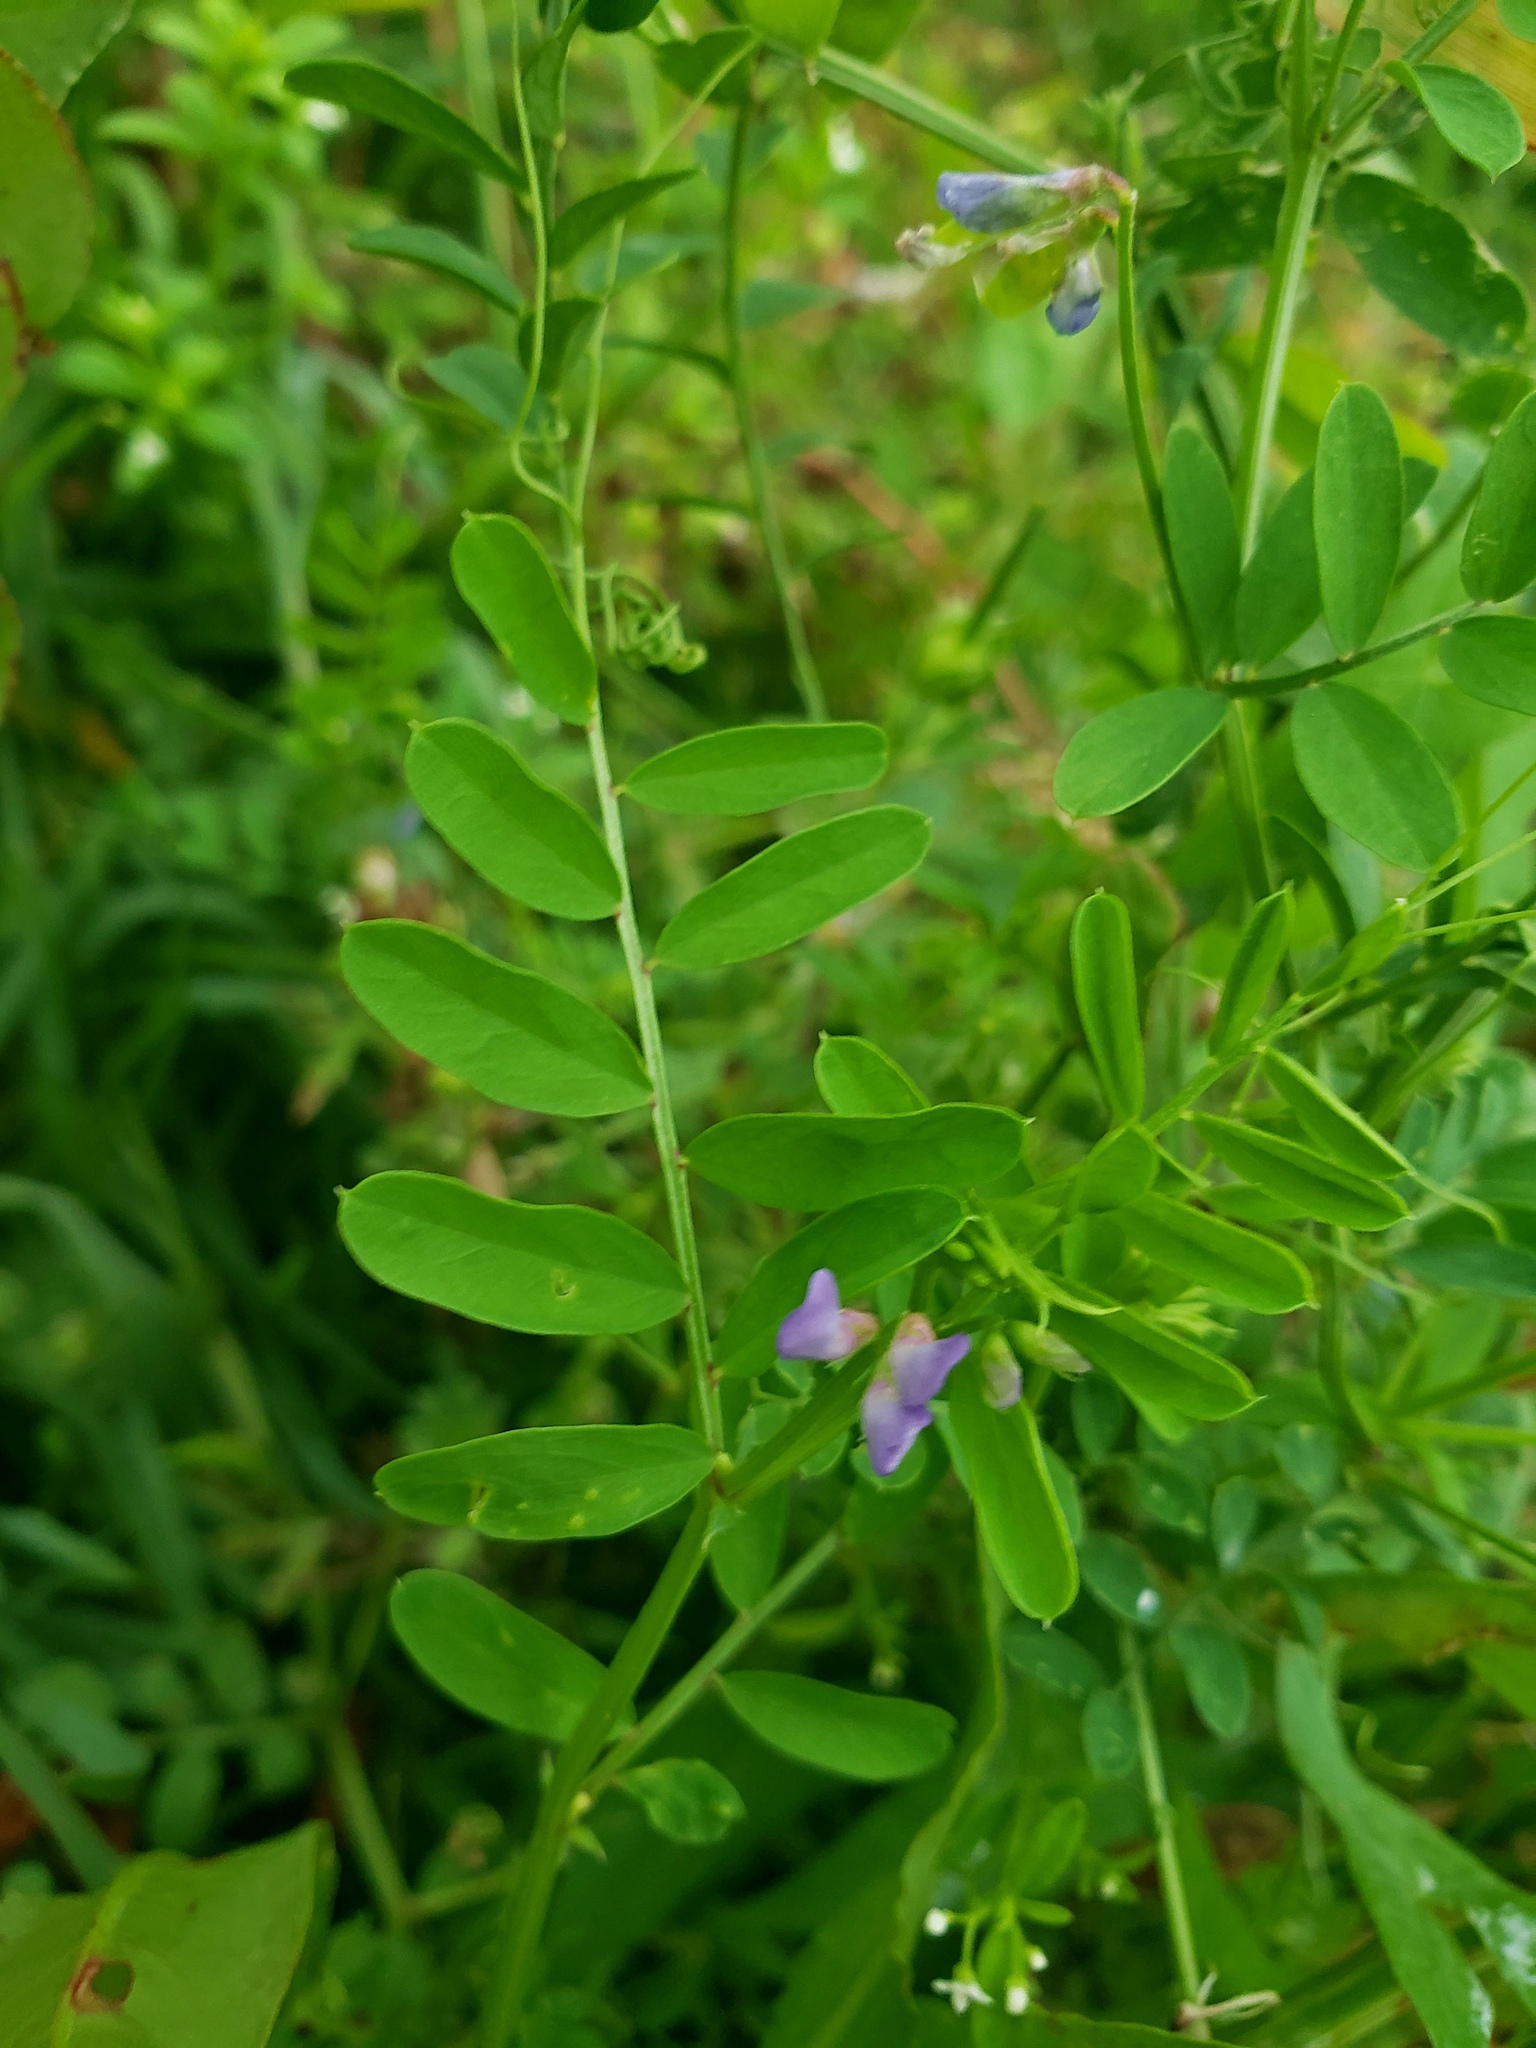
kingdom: Plantae
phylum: Tracheophyta
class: Magnoliopsida
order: Fabales
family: Fabaceae
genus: Vicia
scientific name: Vicia ludoviciana
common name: Louisiana vetch
